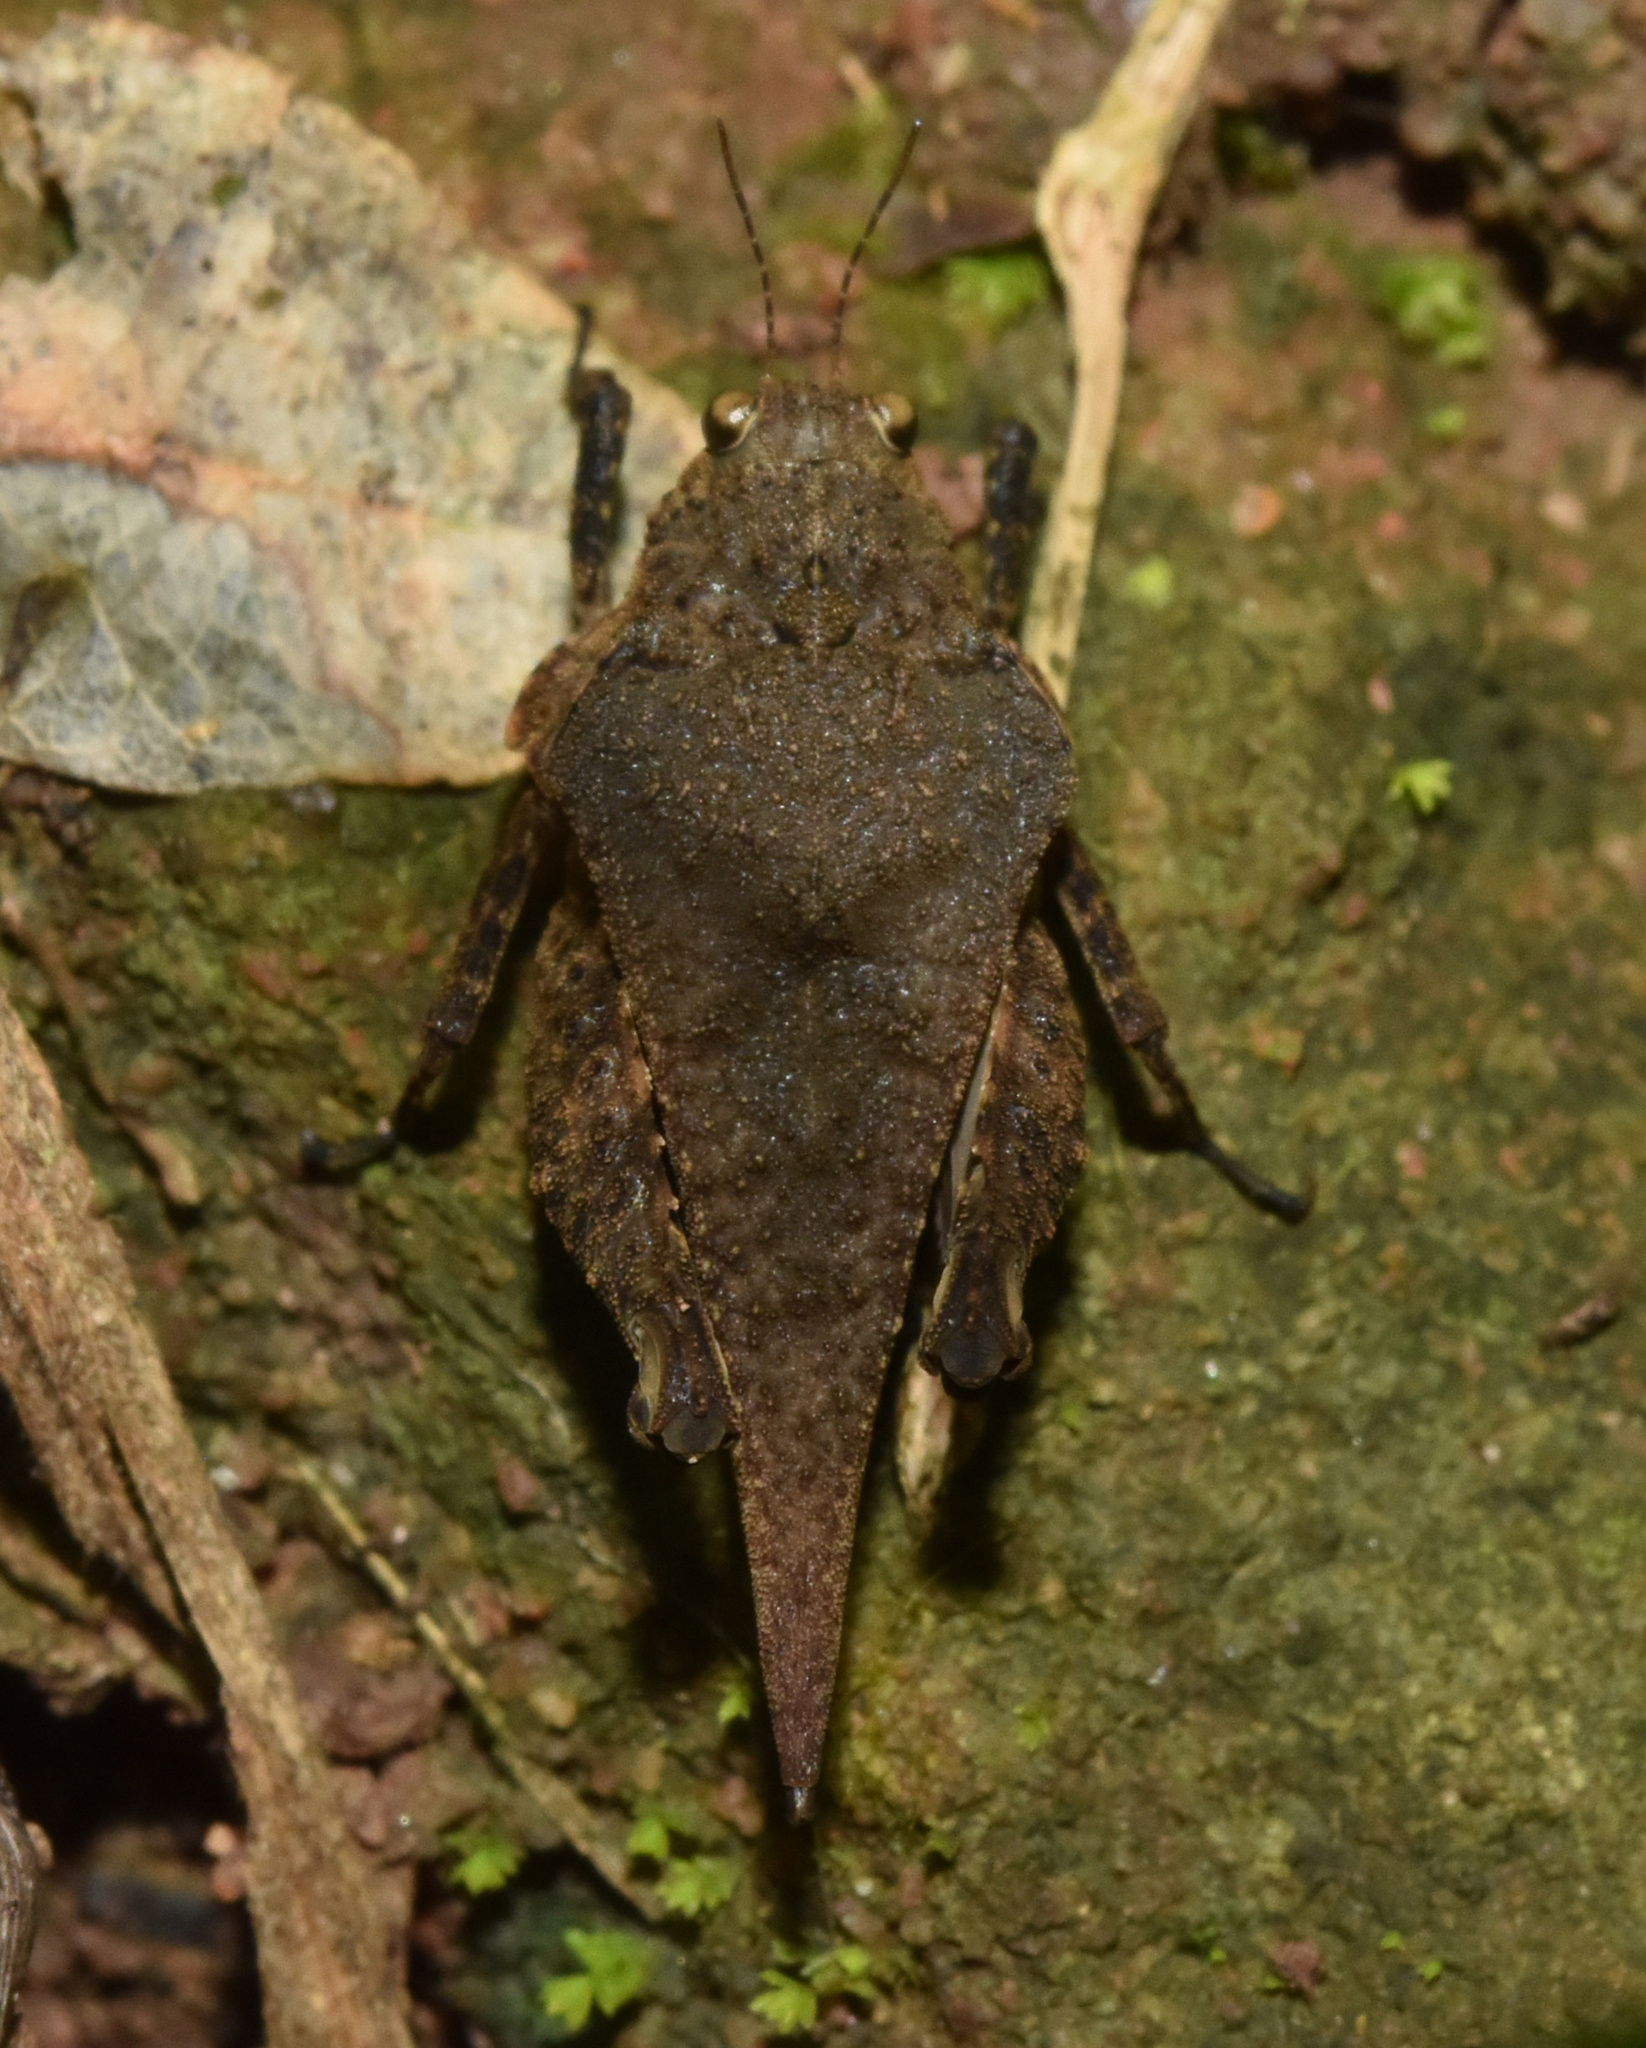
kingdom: Animalia
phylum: Arthropoda
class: Insecta
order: Orthoptera
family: Tetrigidae
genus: Dasyleurotettix
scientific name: Dasyleurotettix infaustus
